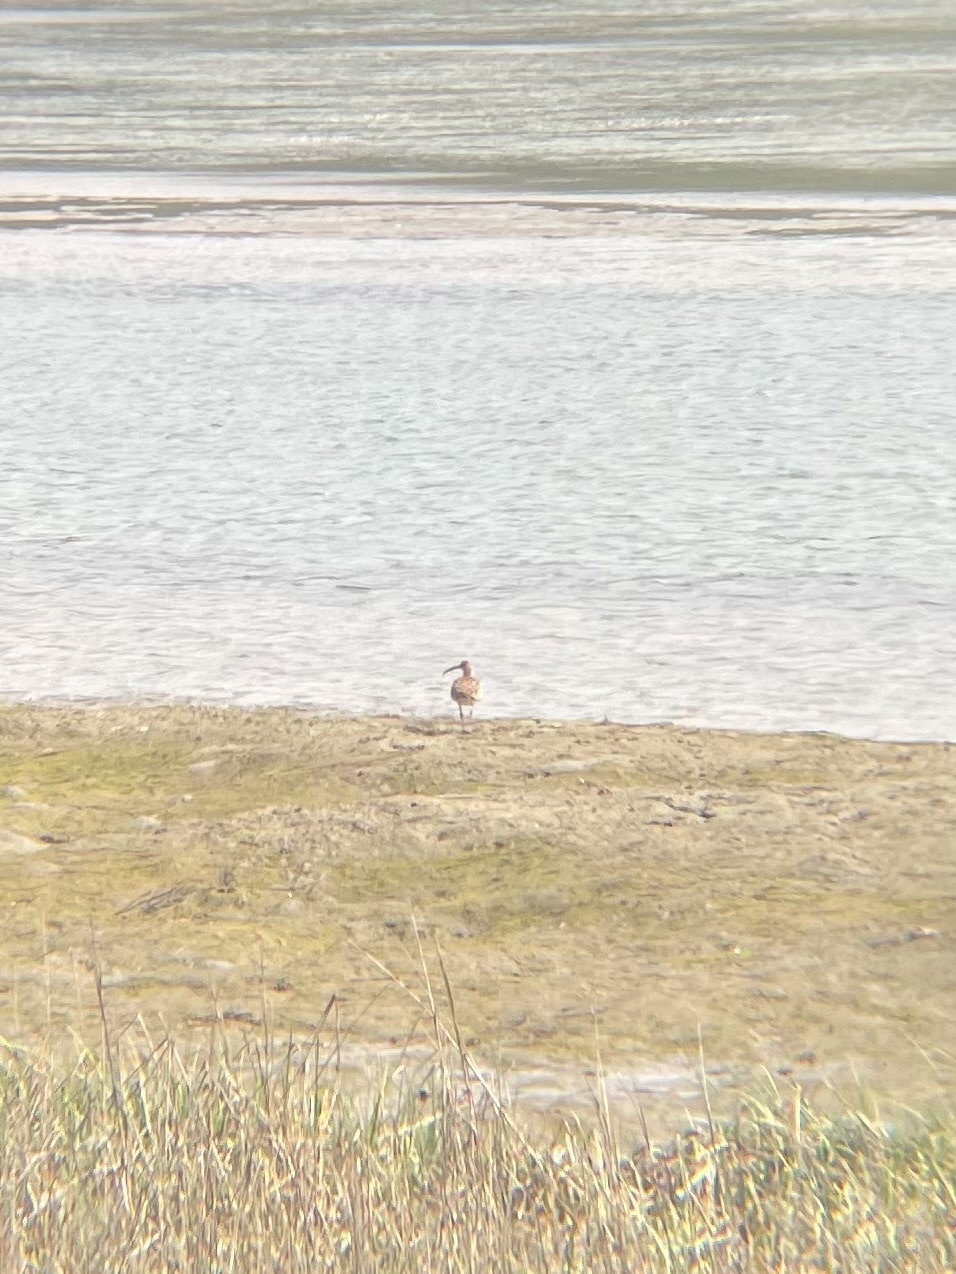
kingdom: Animalia
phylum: Chordata
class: Aves
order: Charadriiformes
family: Scolopacidae
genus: Numenius
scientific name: Numenius americanus
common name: Long-billed curlew
